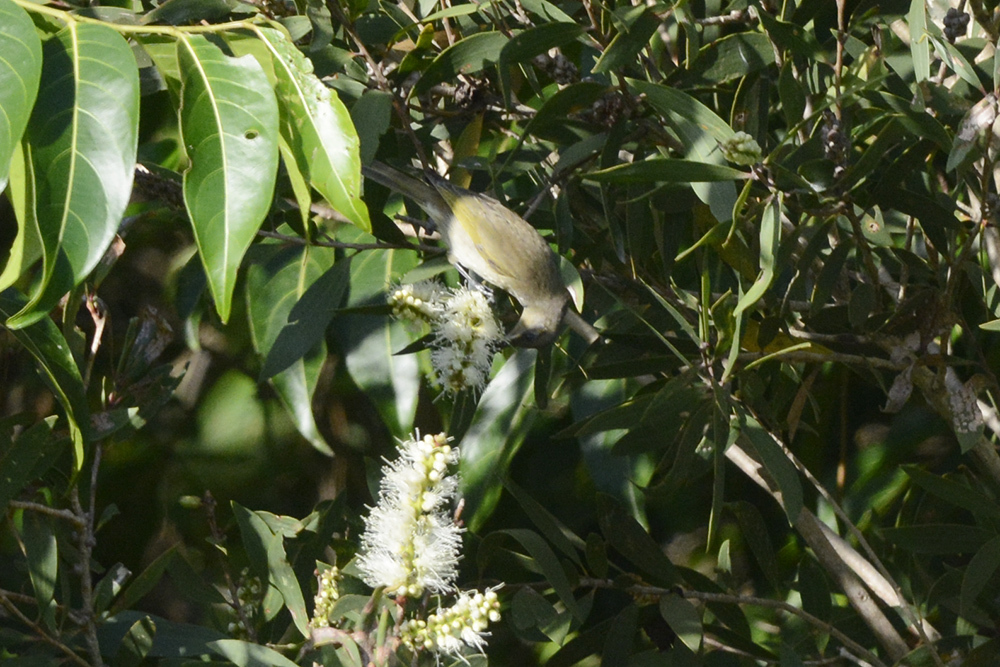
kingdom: Animalia
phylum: Chordata
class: Aves
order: Passeriformes
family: Meliphagidae
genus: Lichmera
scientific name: Lichmera indistincta
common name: Brown honeyeater
